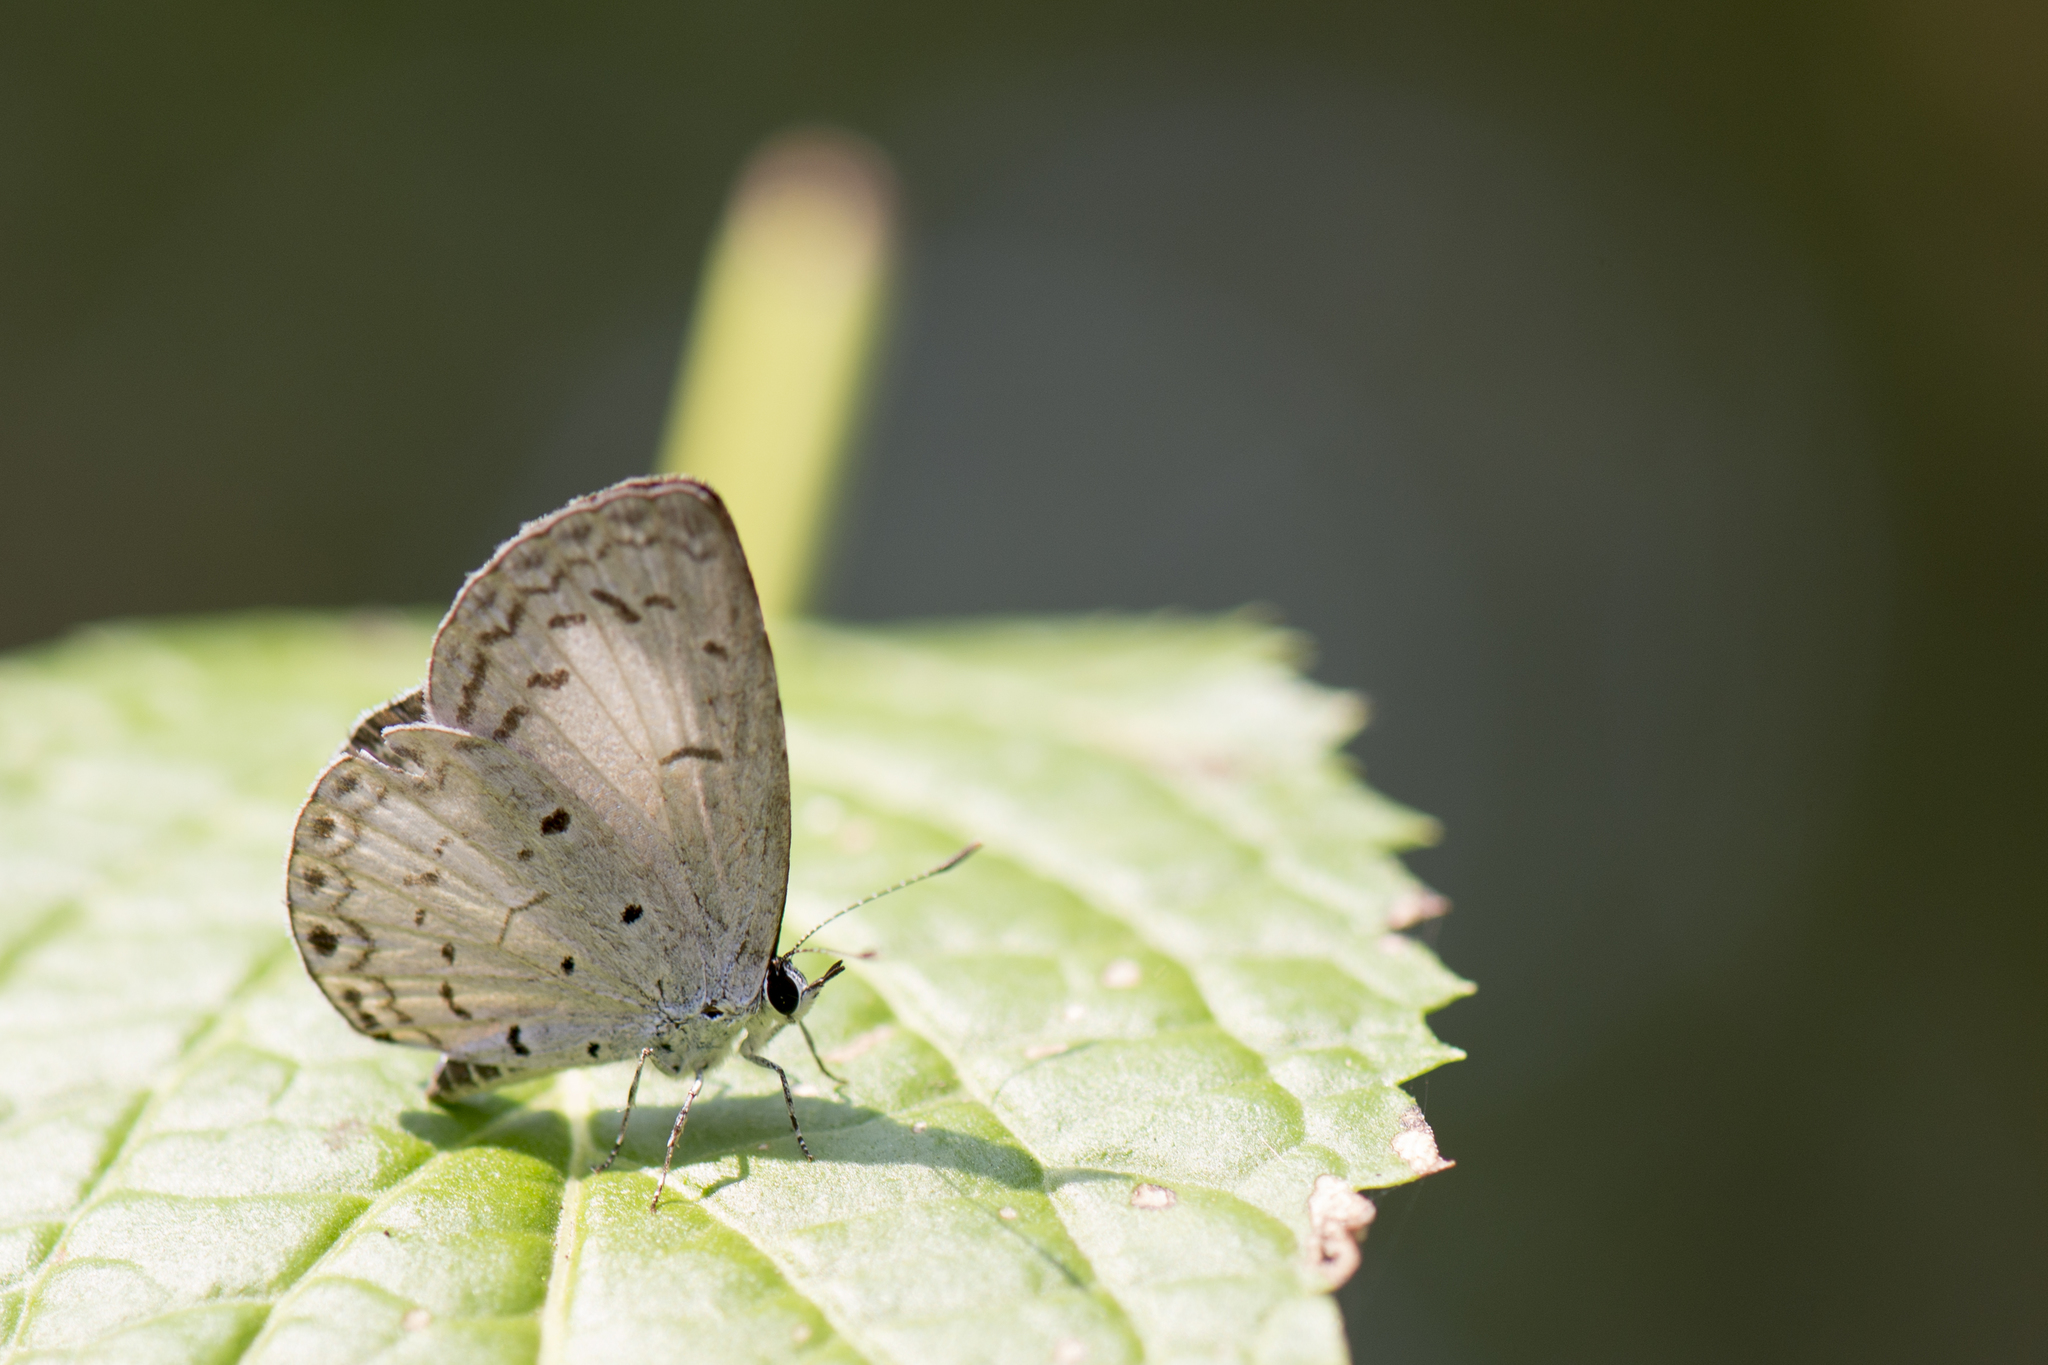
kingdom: Animalia
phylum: Arthropoda
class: Insecta
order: Lepidoptera
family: Lycaenidae
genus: Acytolepis
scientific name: Acytolepis puspa
